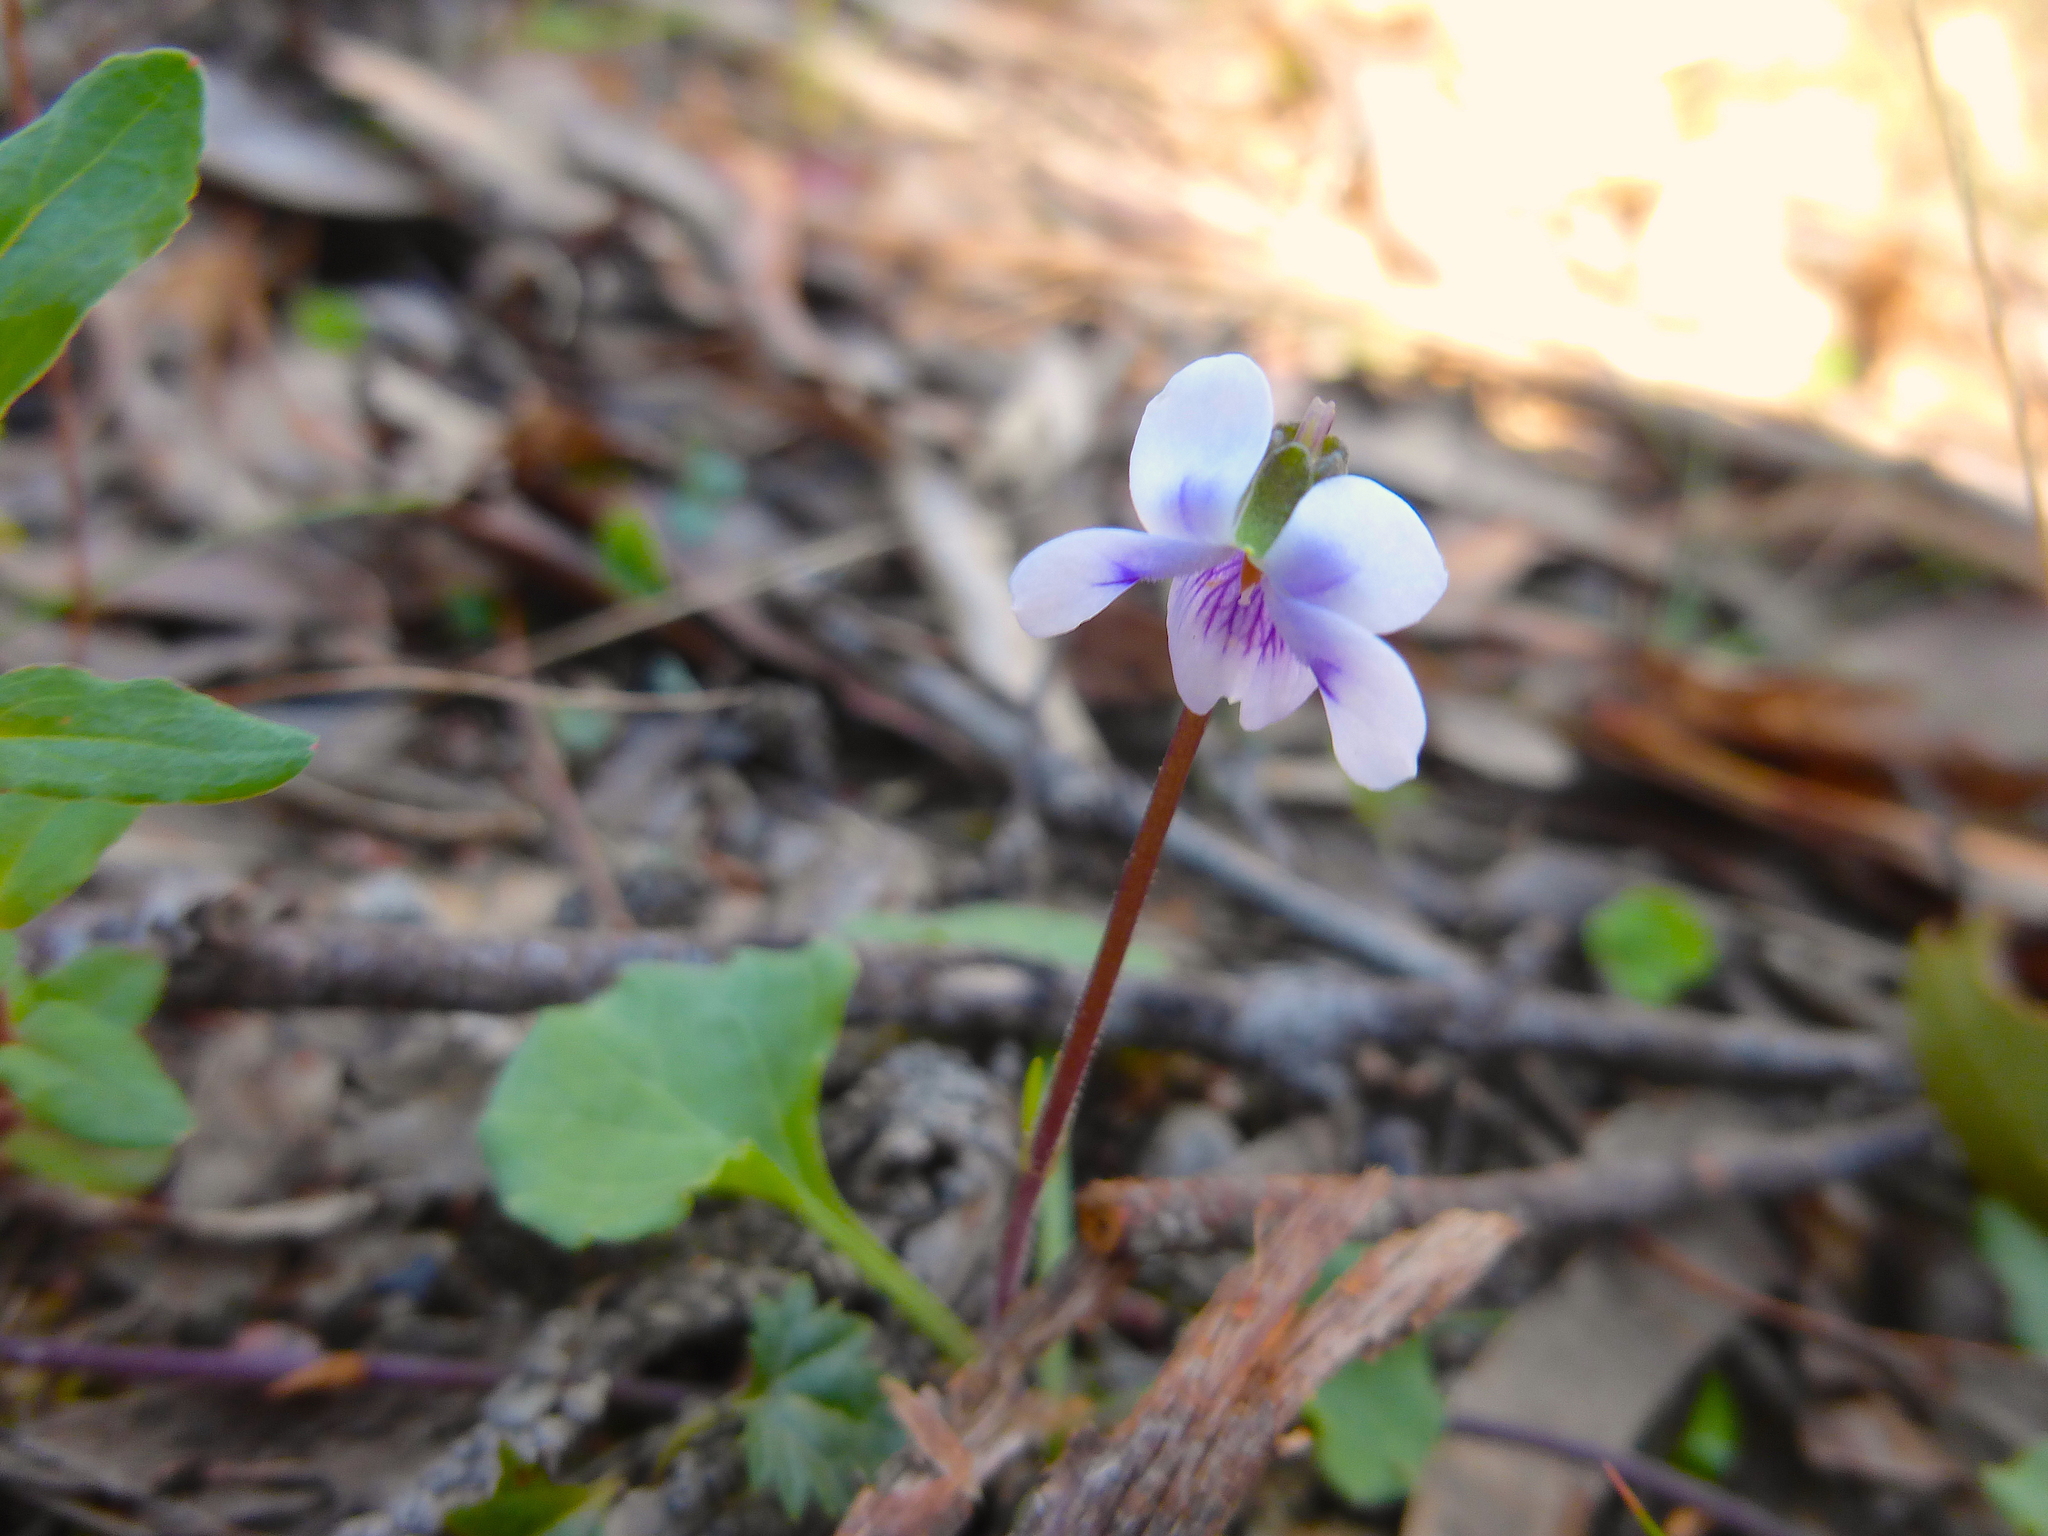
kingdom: Plantae
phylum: Tracheophyta
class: Magnoliopsida
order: Malpighiales
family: Violaceae
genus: Viola
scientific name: Viola hederacea
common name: Australian violet
